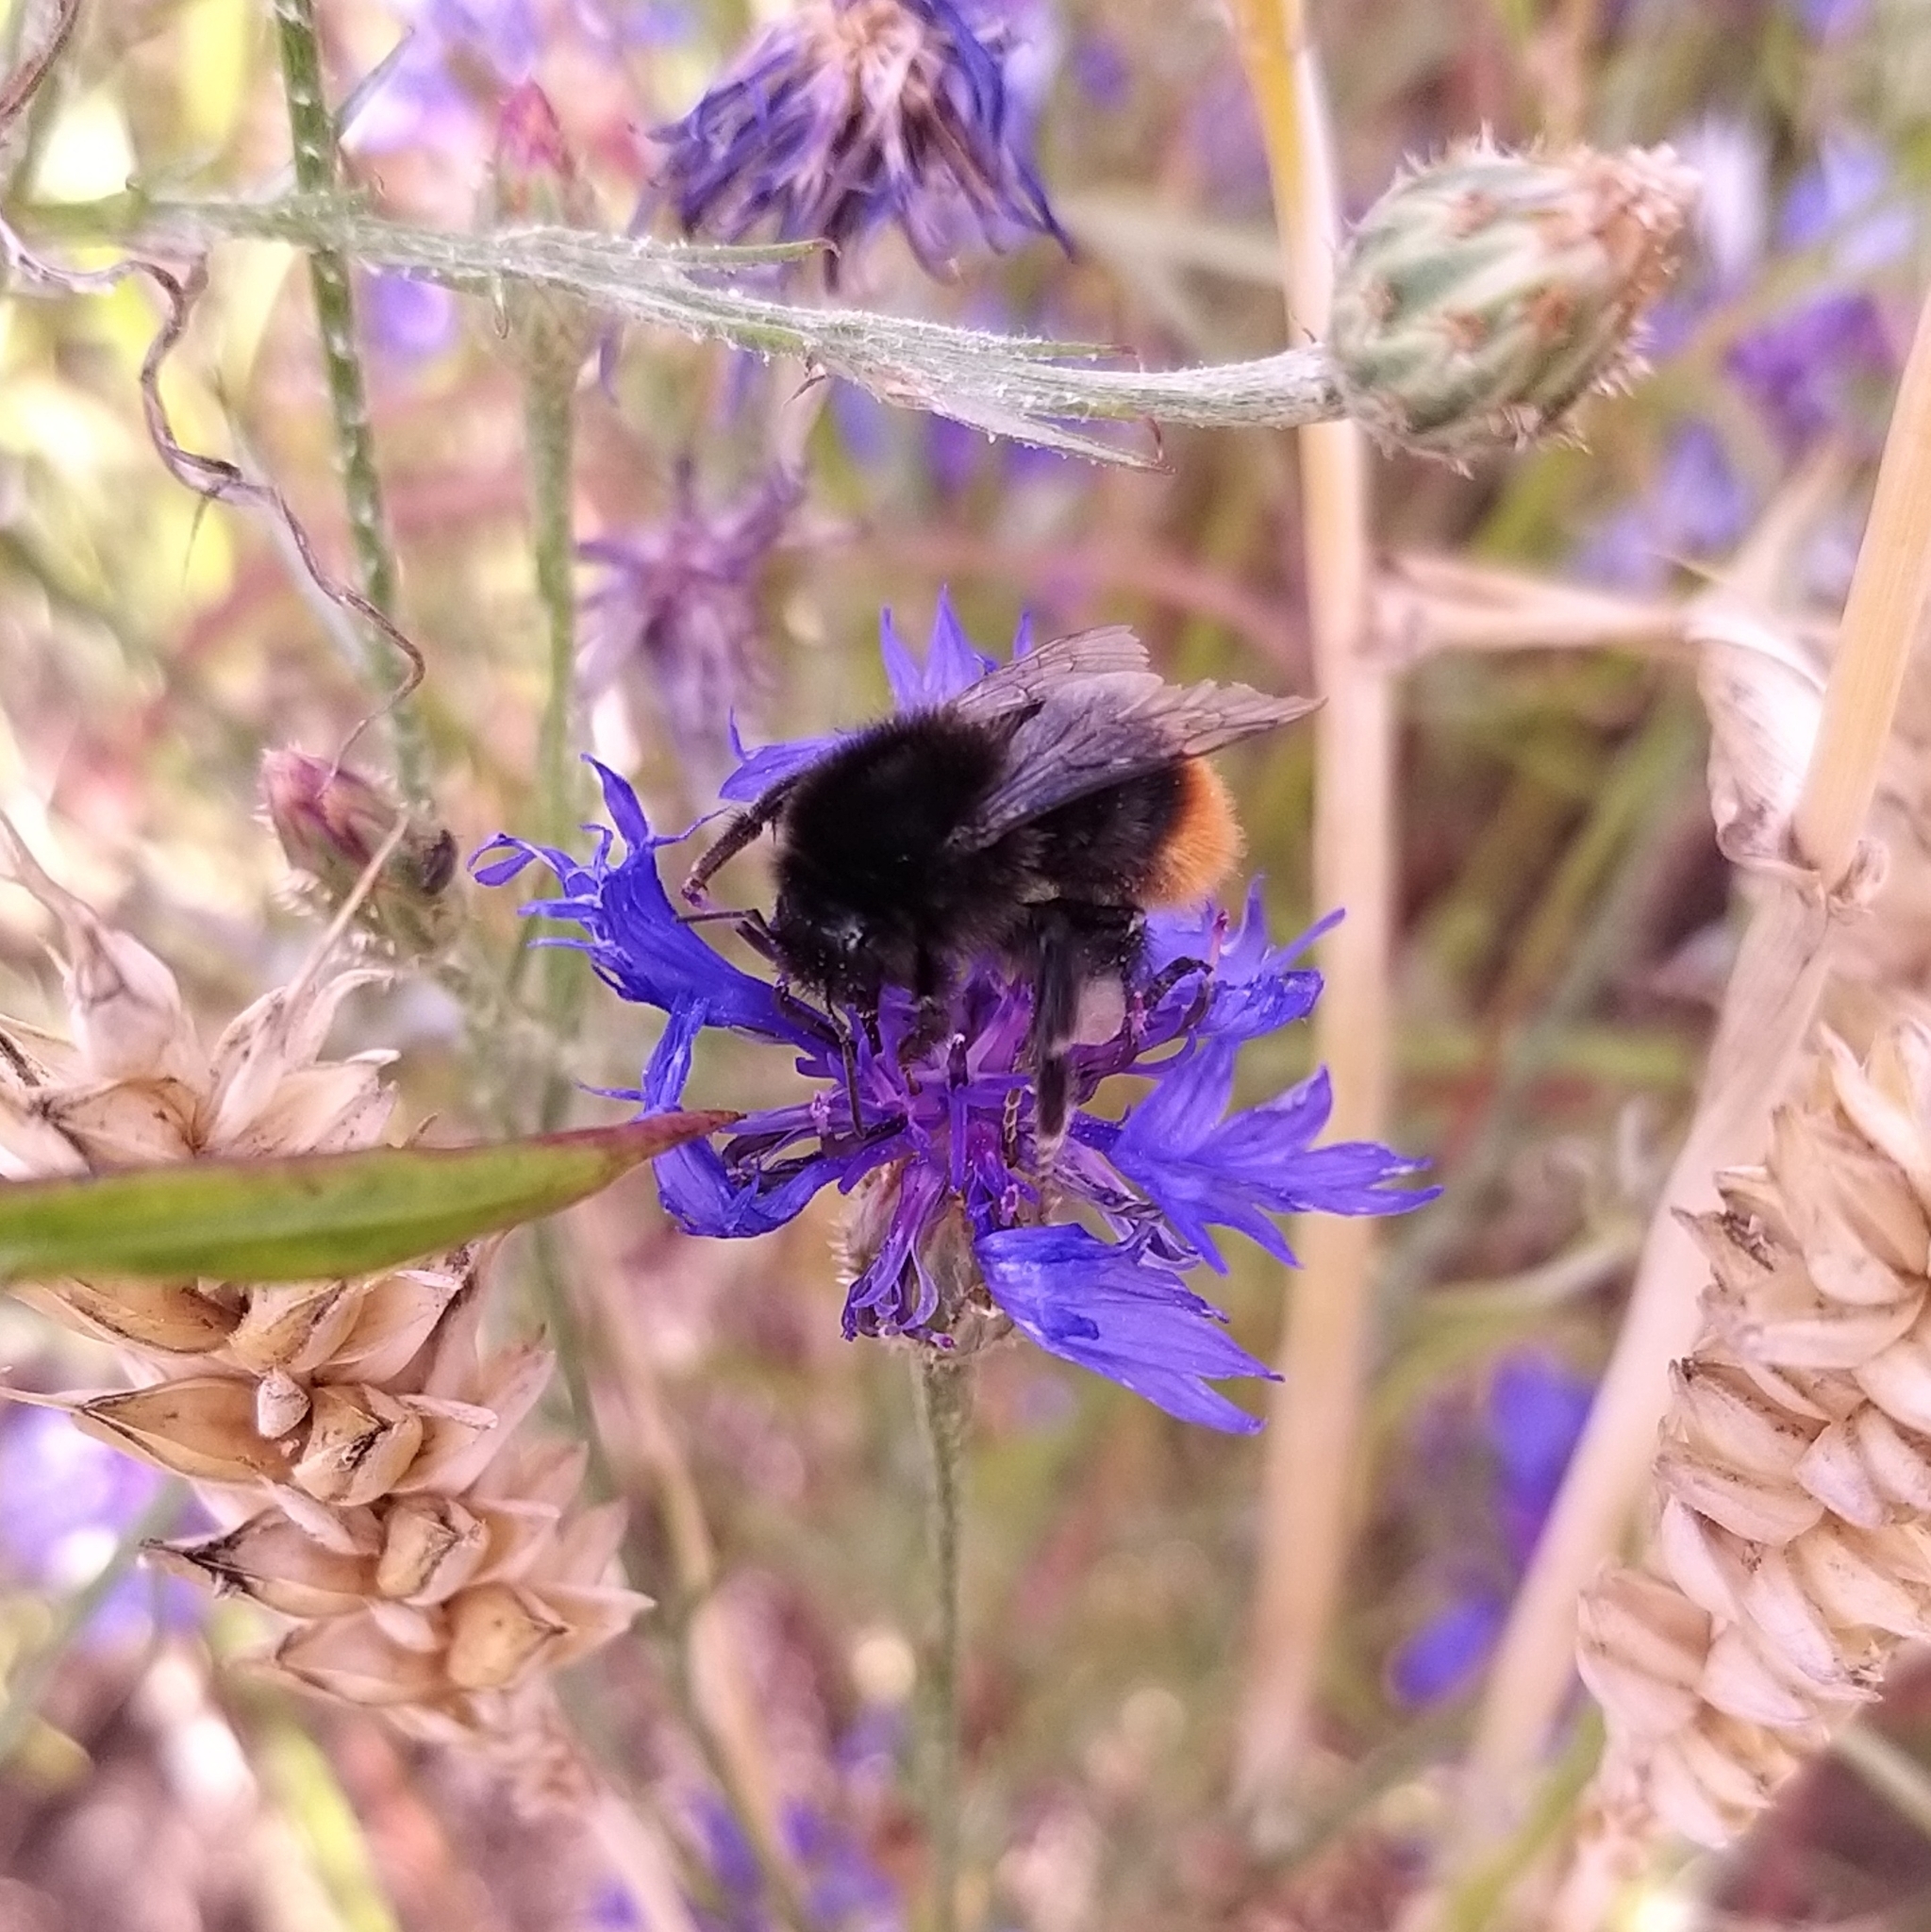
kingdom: Plantae
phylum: Tracheophyta
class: Magnoliopsida
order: Asterales
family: Asteraceae
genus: Centaurea
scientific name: Centaurea cyanus
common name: Cornflower
